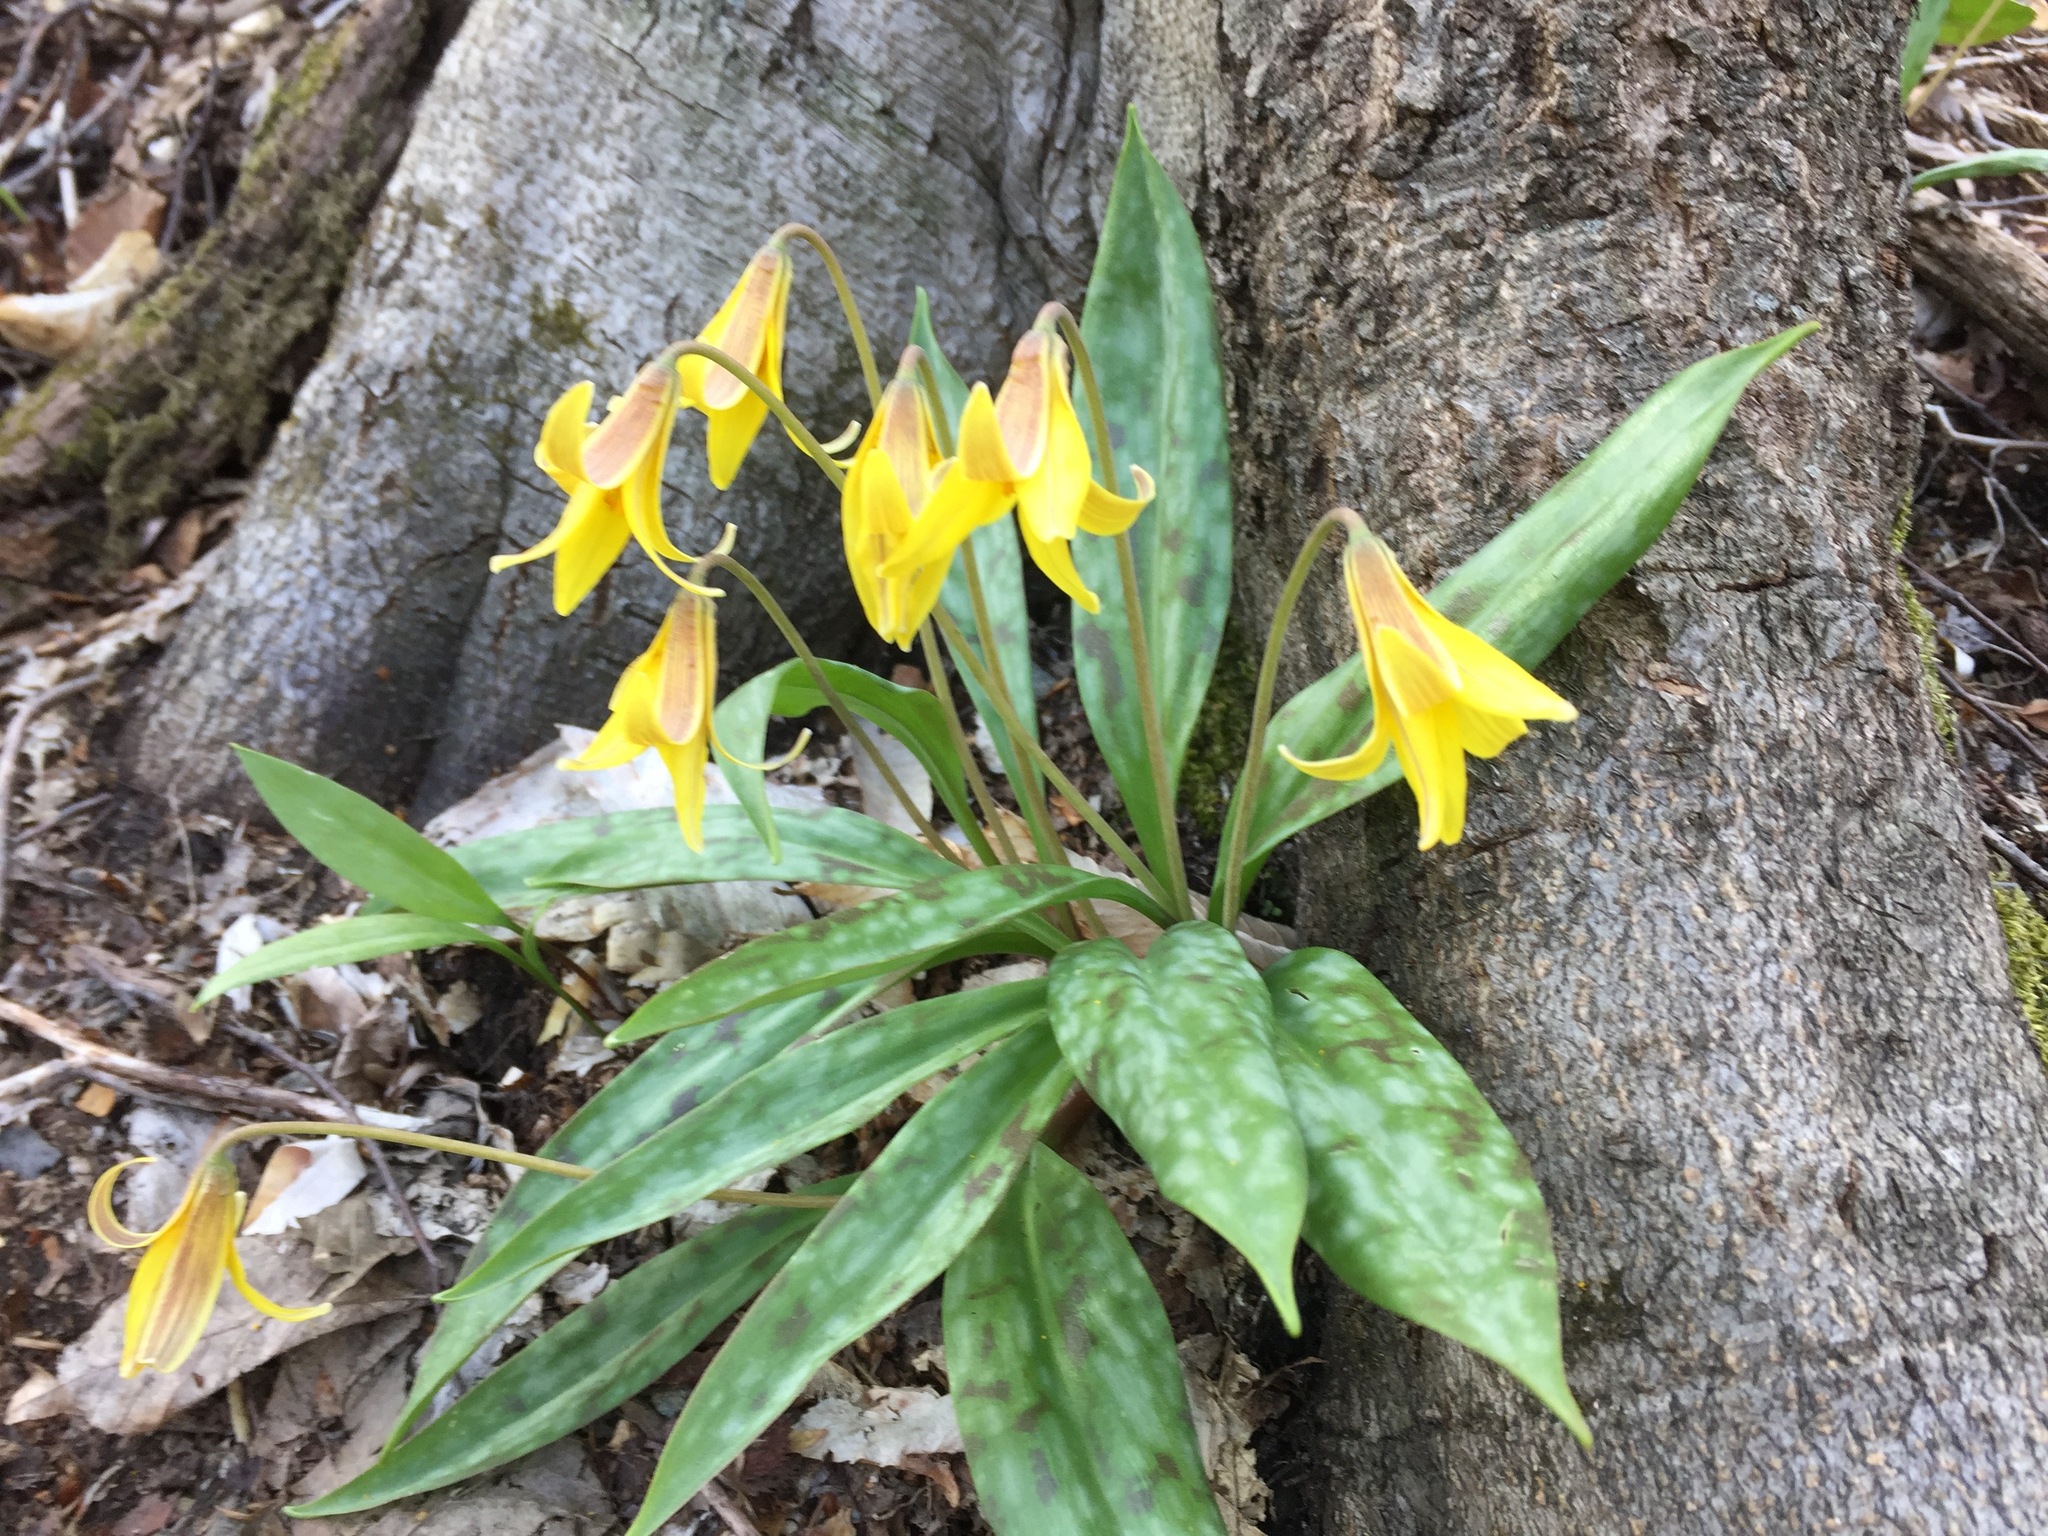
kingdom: Plantae
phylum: Tracheophyta
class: Liliopsida
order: Liliales
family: Liliaceae
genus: Erythronium
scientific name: Erythronium americanum
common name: Yellow adder's-tongue
